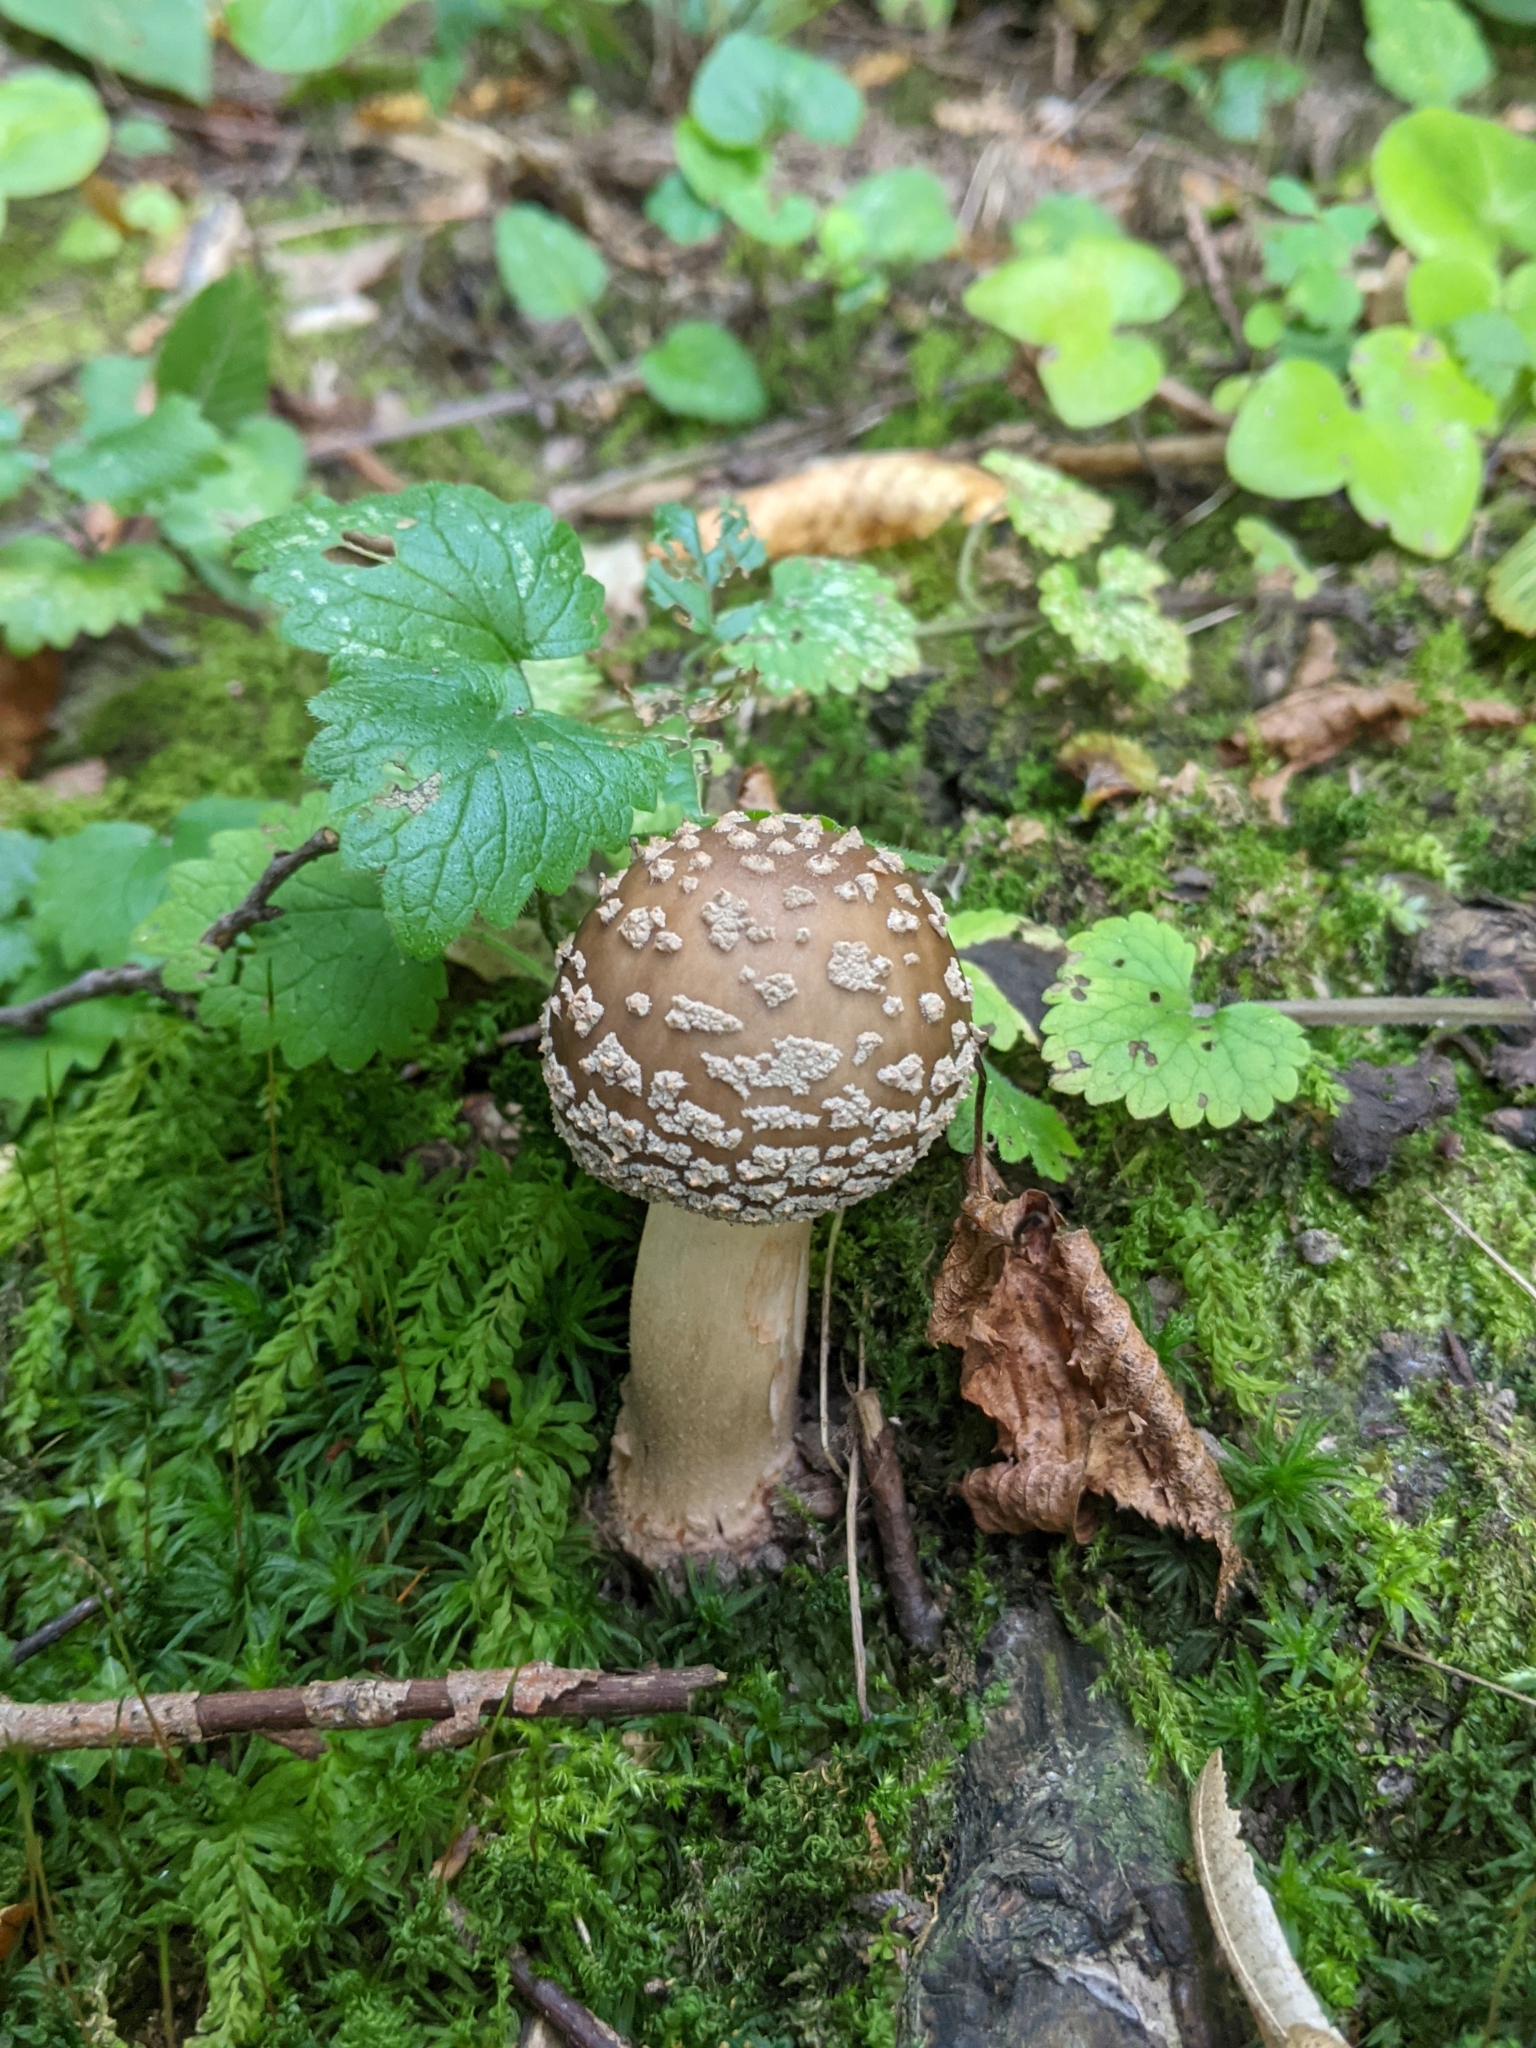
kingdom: Fungi
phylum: Basidiomycota
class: Agaricomycetes
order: Agaricales
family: Amanitaceae
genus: Amanita
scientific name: Amanita rubescens
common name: Blusher
